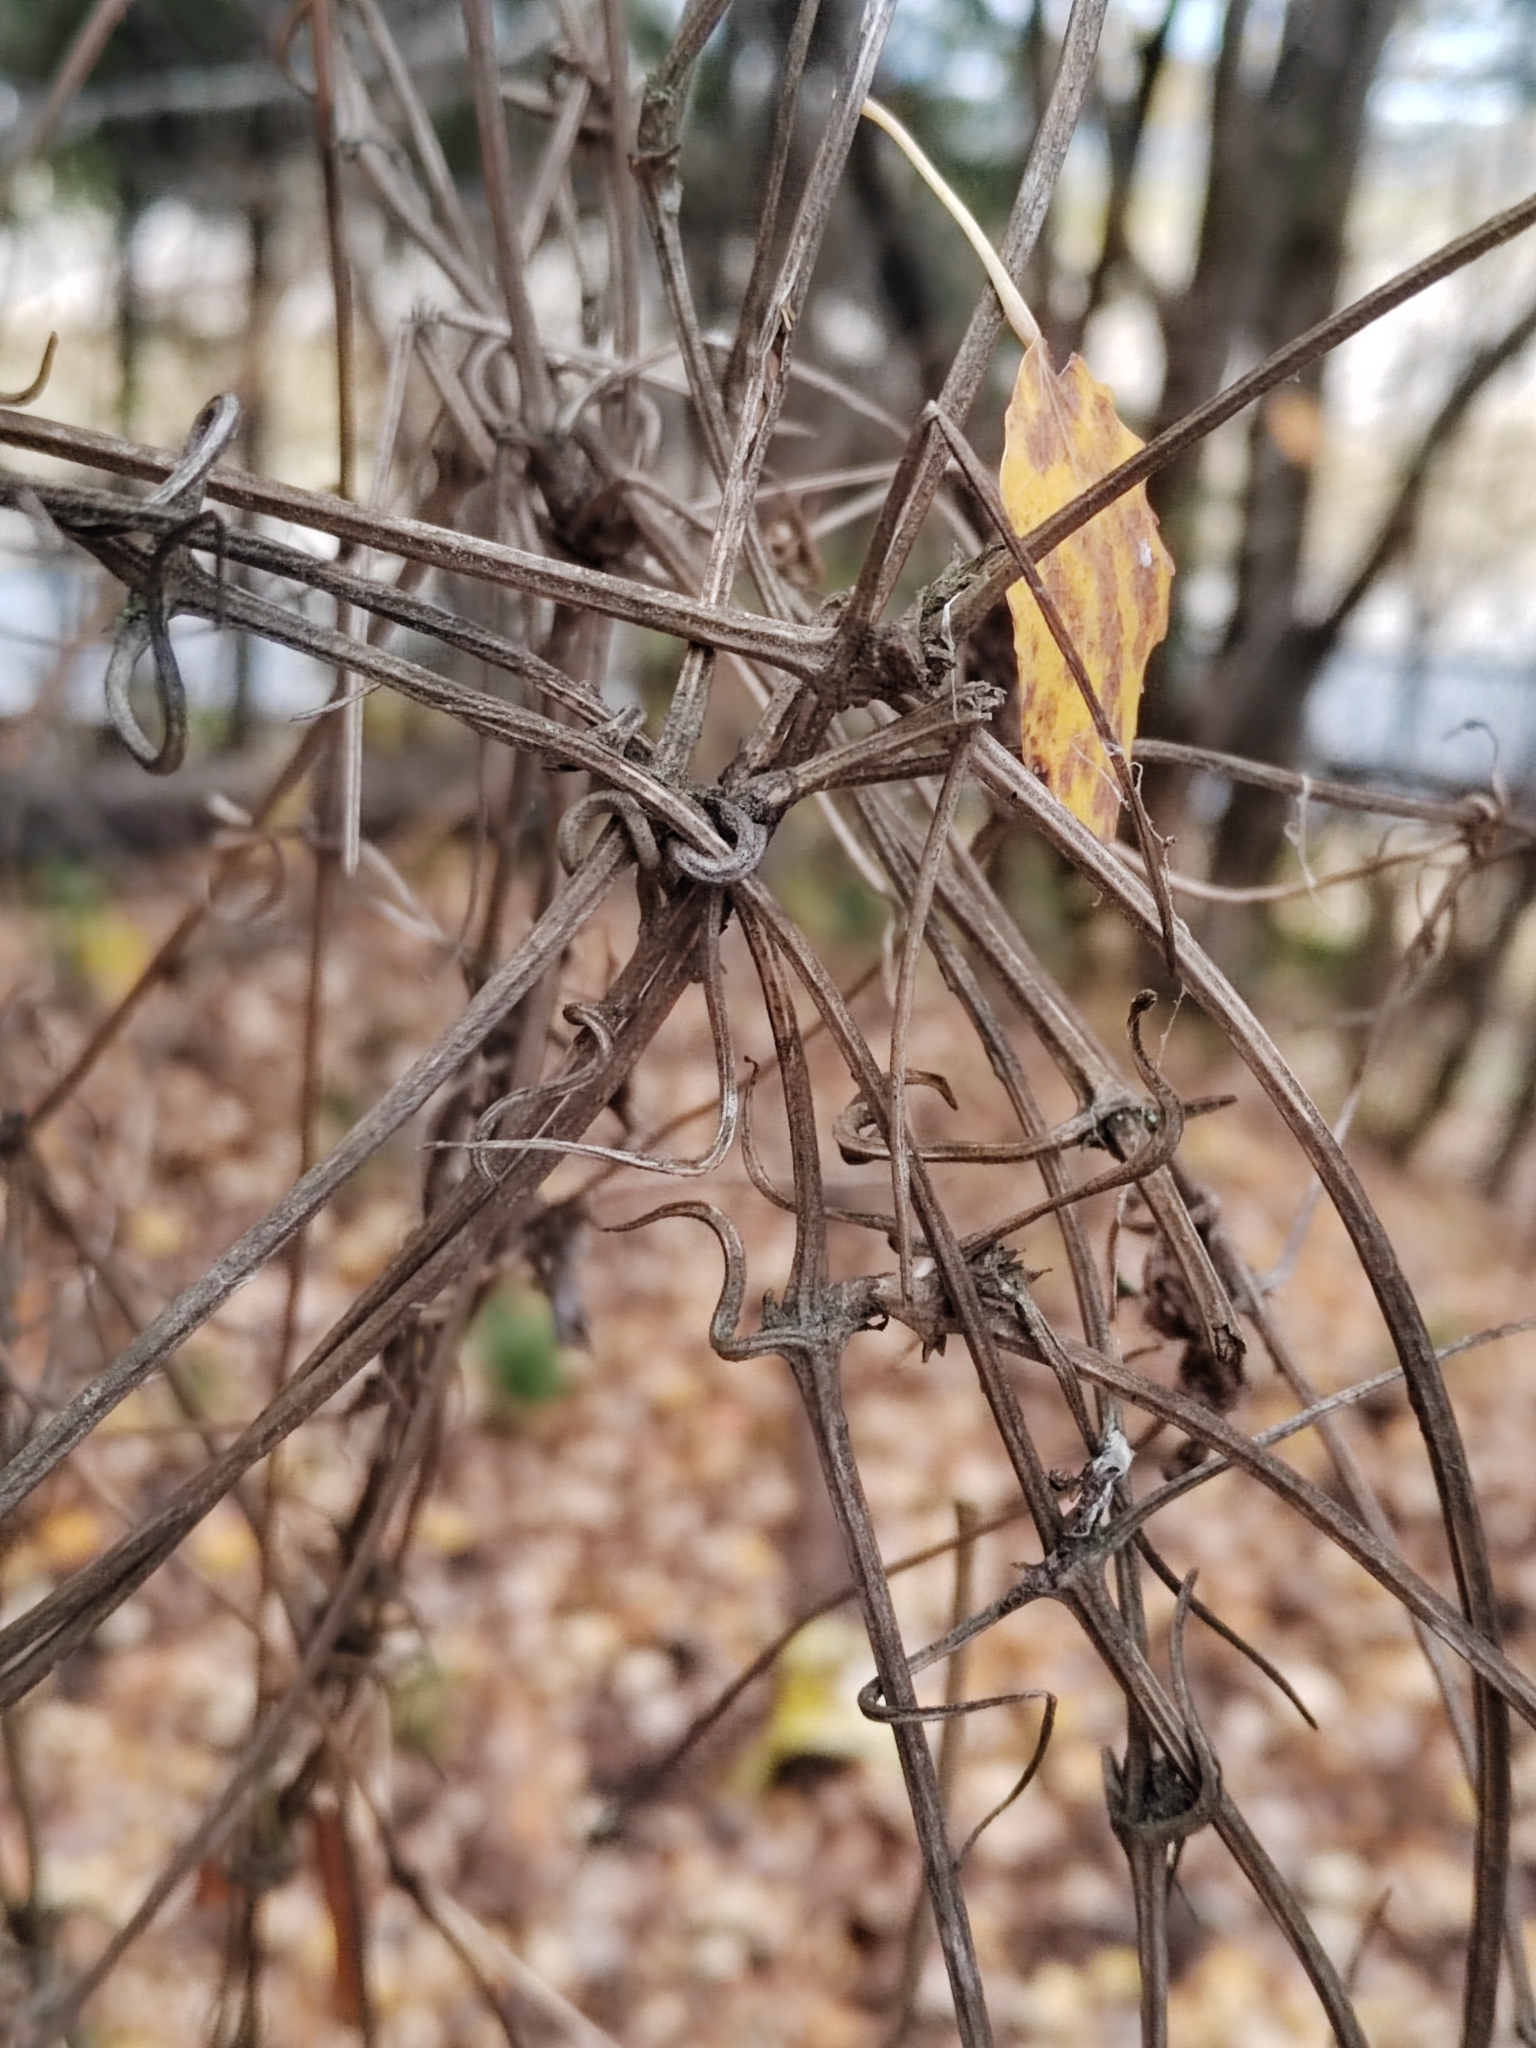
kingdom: Plantae
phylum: Tracheophyta
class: Magnoliopsida
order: Ranunculales
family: Ranunculaceae
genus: Clematis
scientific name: Clematis sibirica
